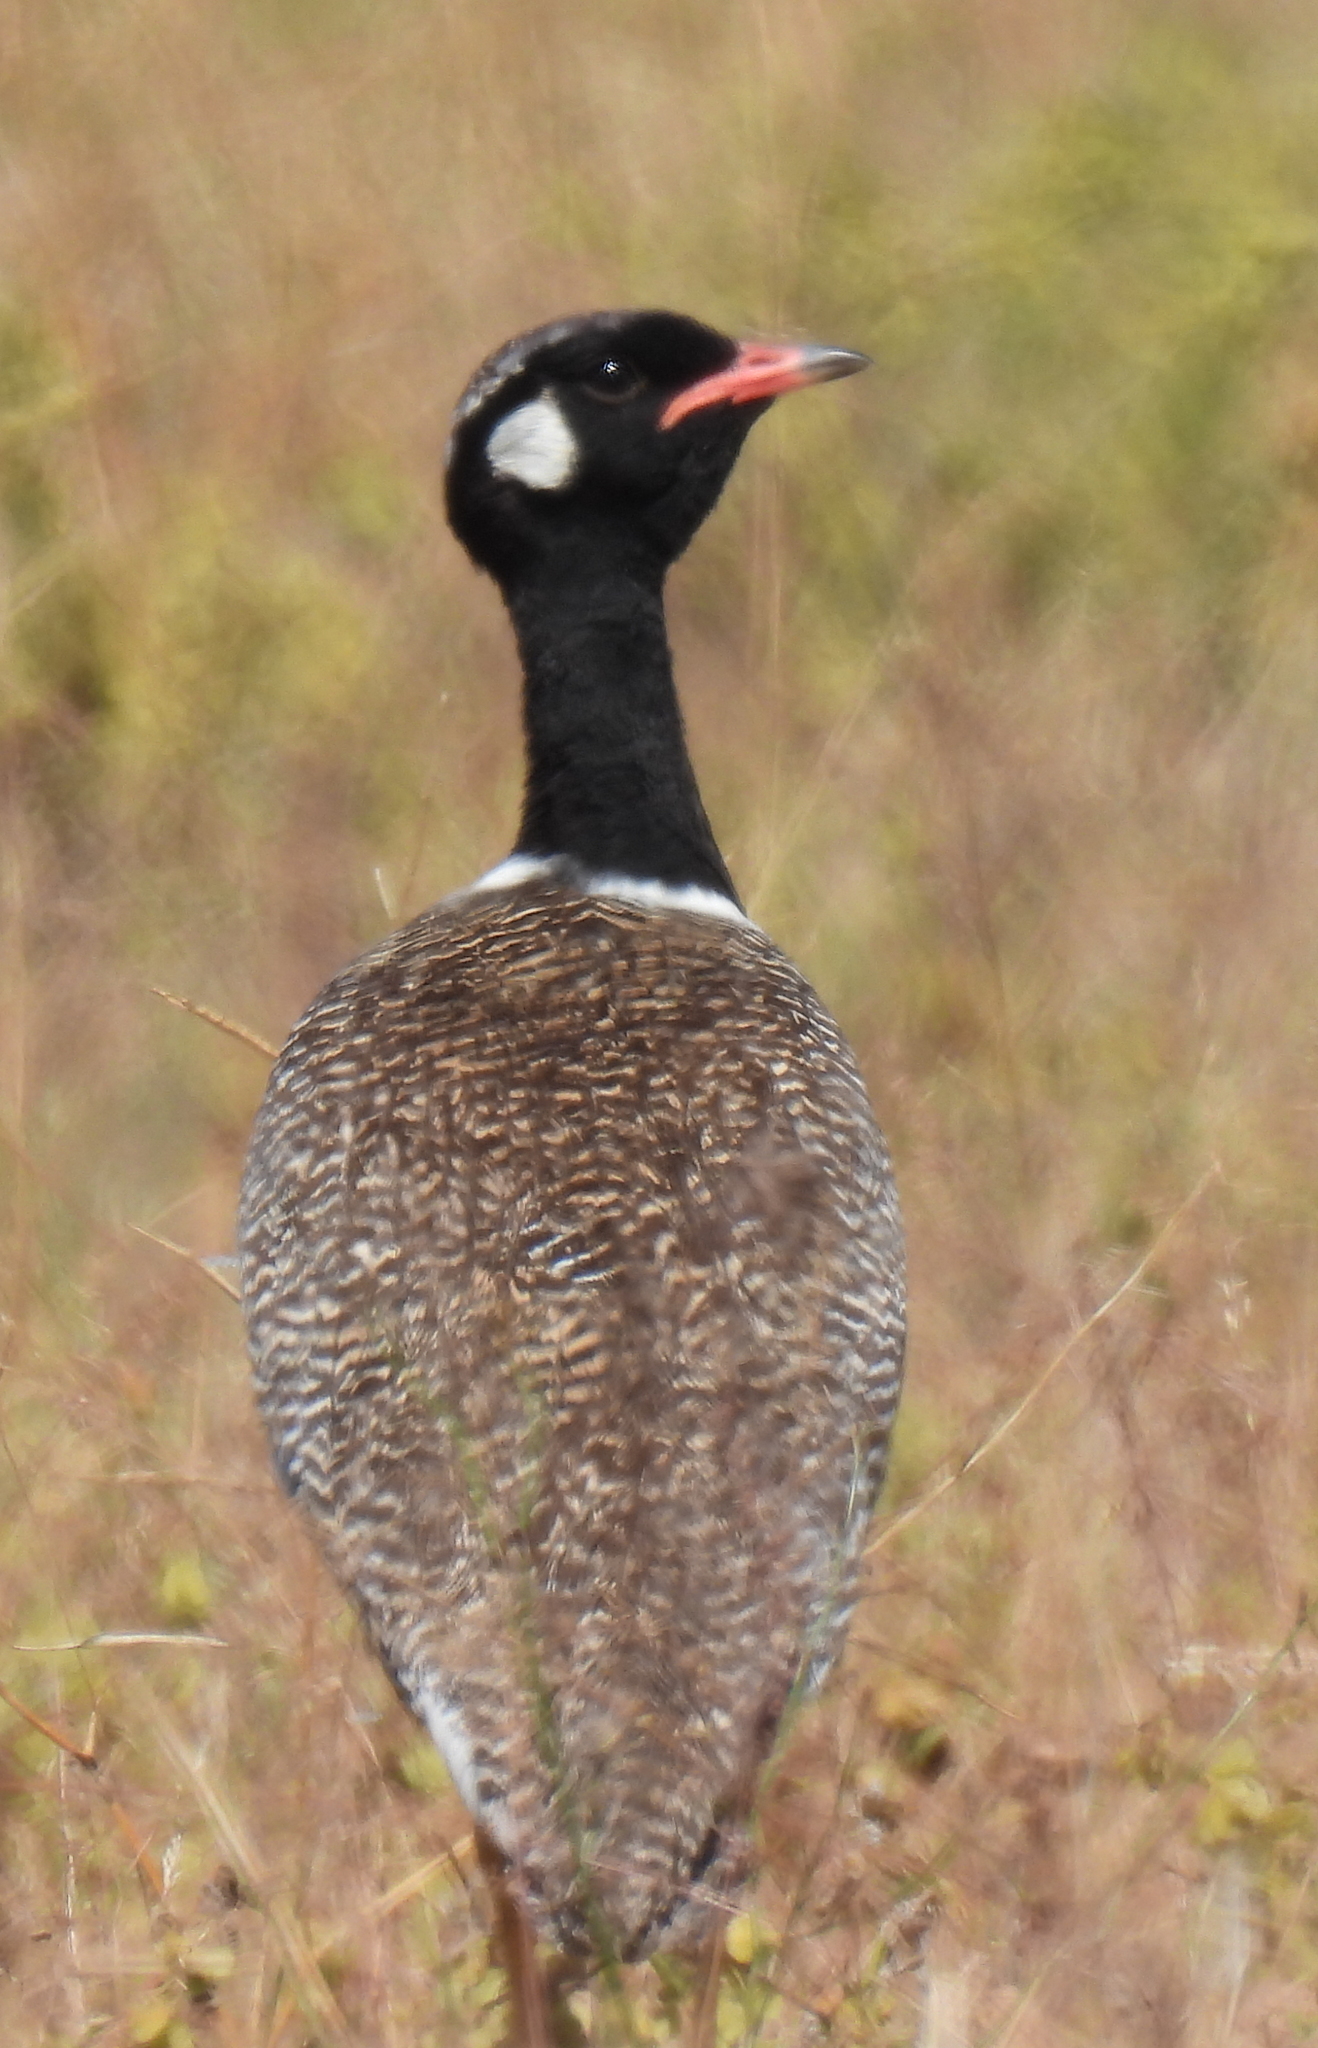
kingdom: Animalia
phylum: Chordata
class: Aves
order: Otidiformes
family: Otididae
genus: Afrotis
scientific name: Afrotis afra
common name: Southern black korhaan
